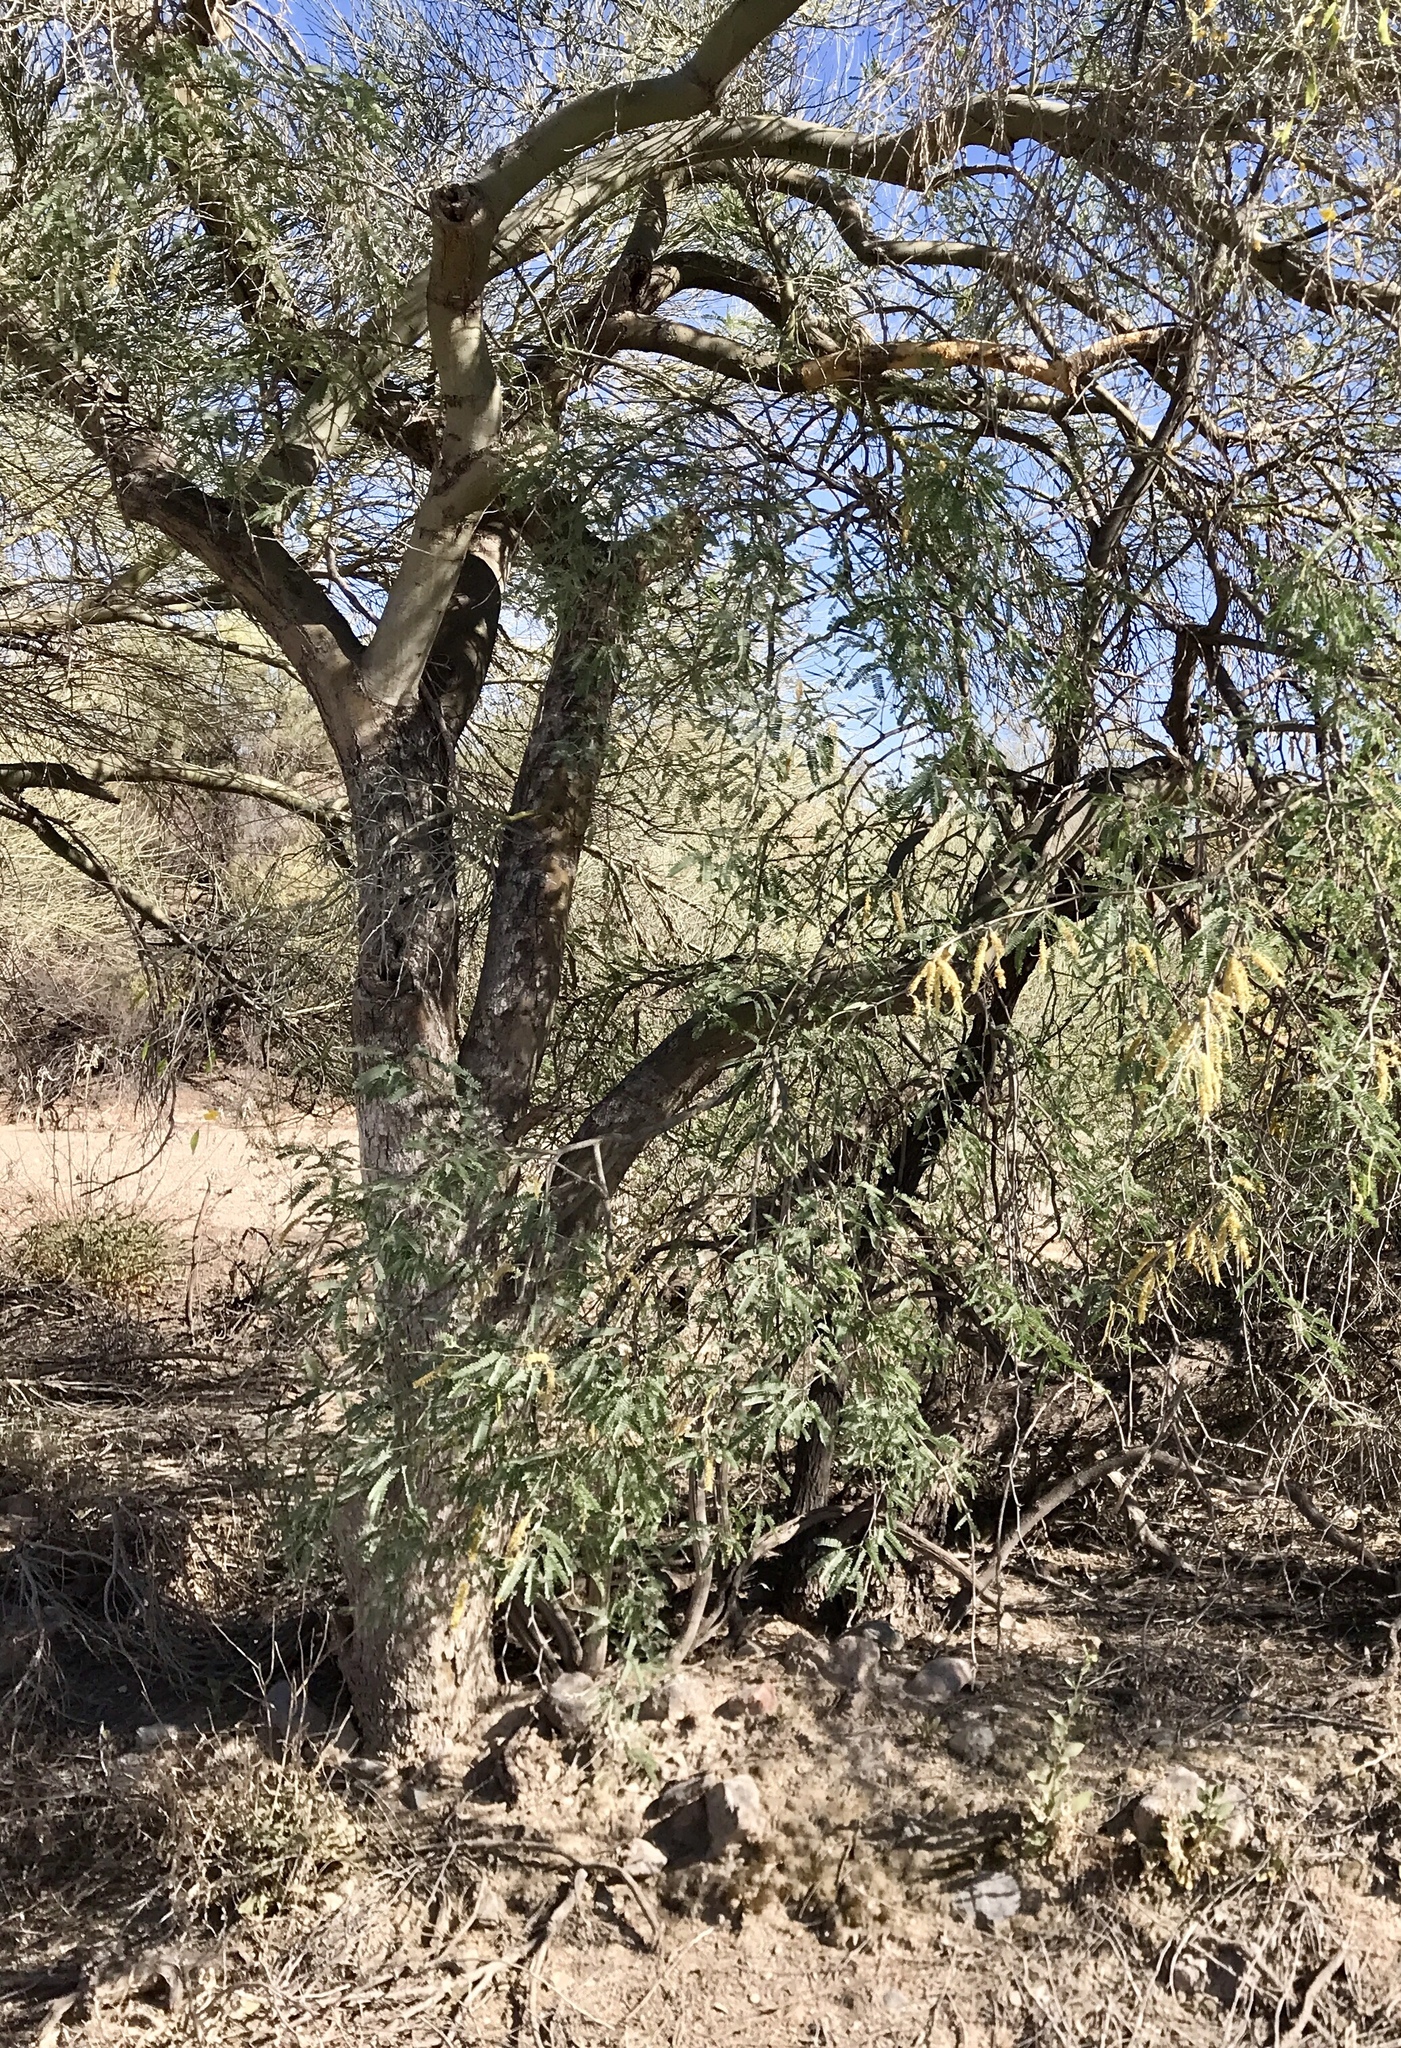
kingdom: Plantae
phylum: Tracheophyta
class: Magnoliopsida
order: Fabales
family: Fabaceae
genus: Parkinsonia
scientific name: Parkinsonia florida
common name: Blue paloverde
